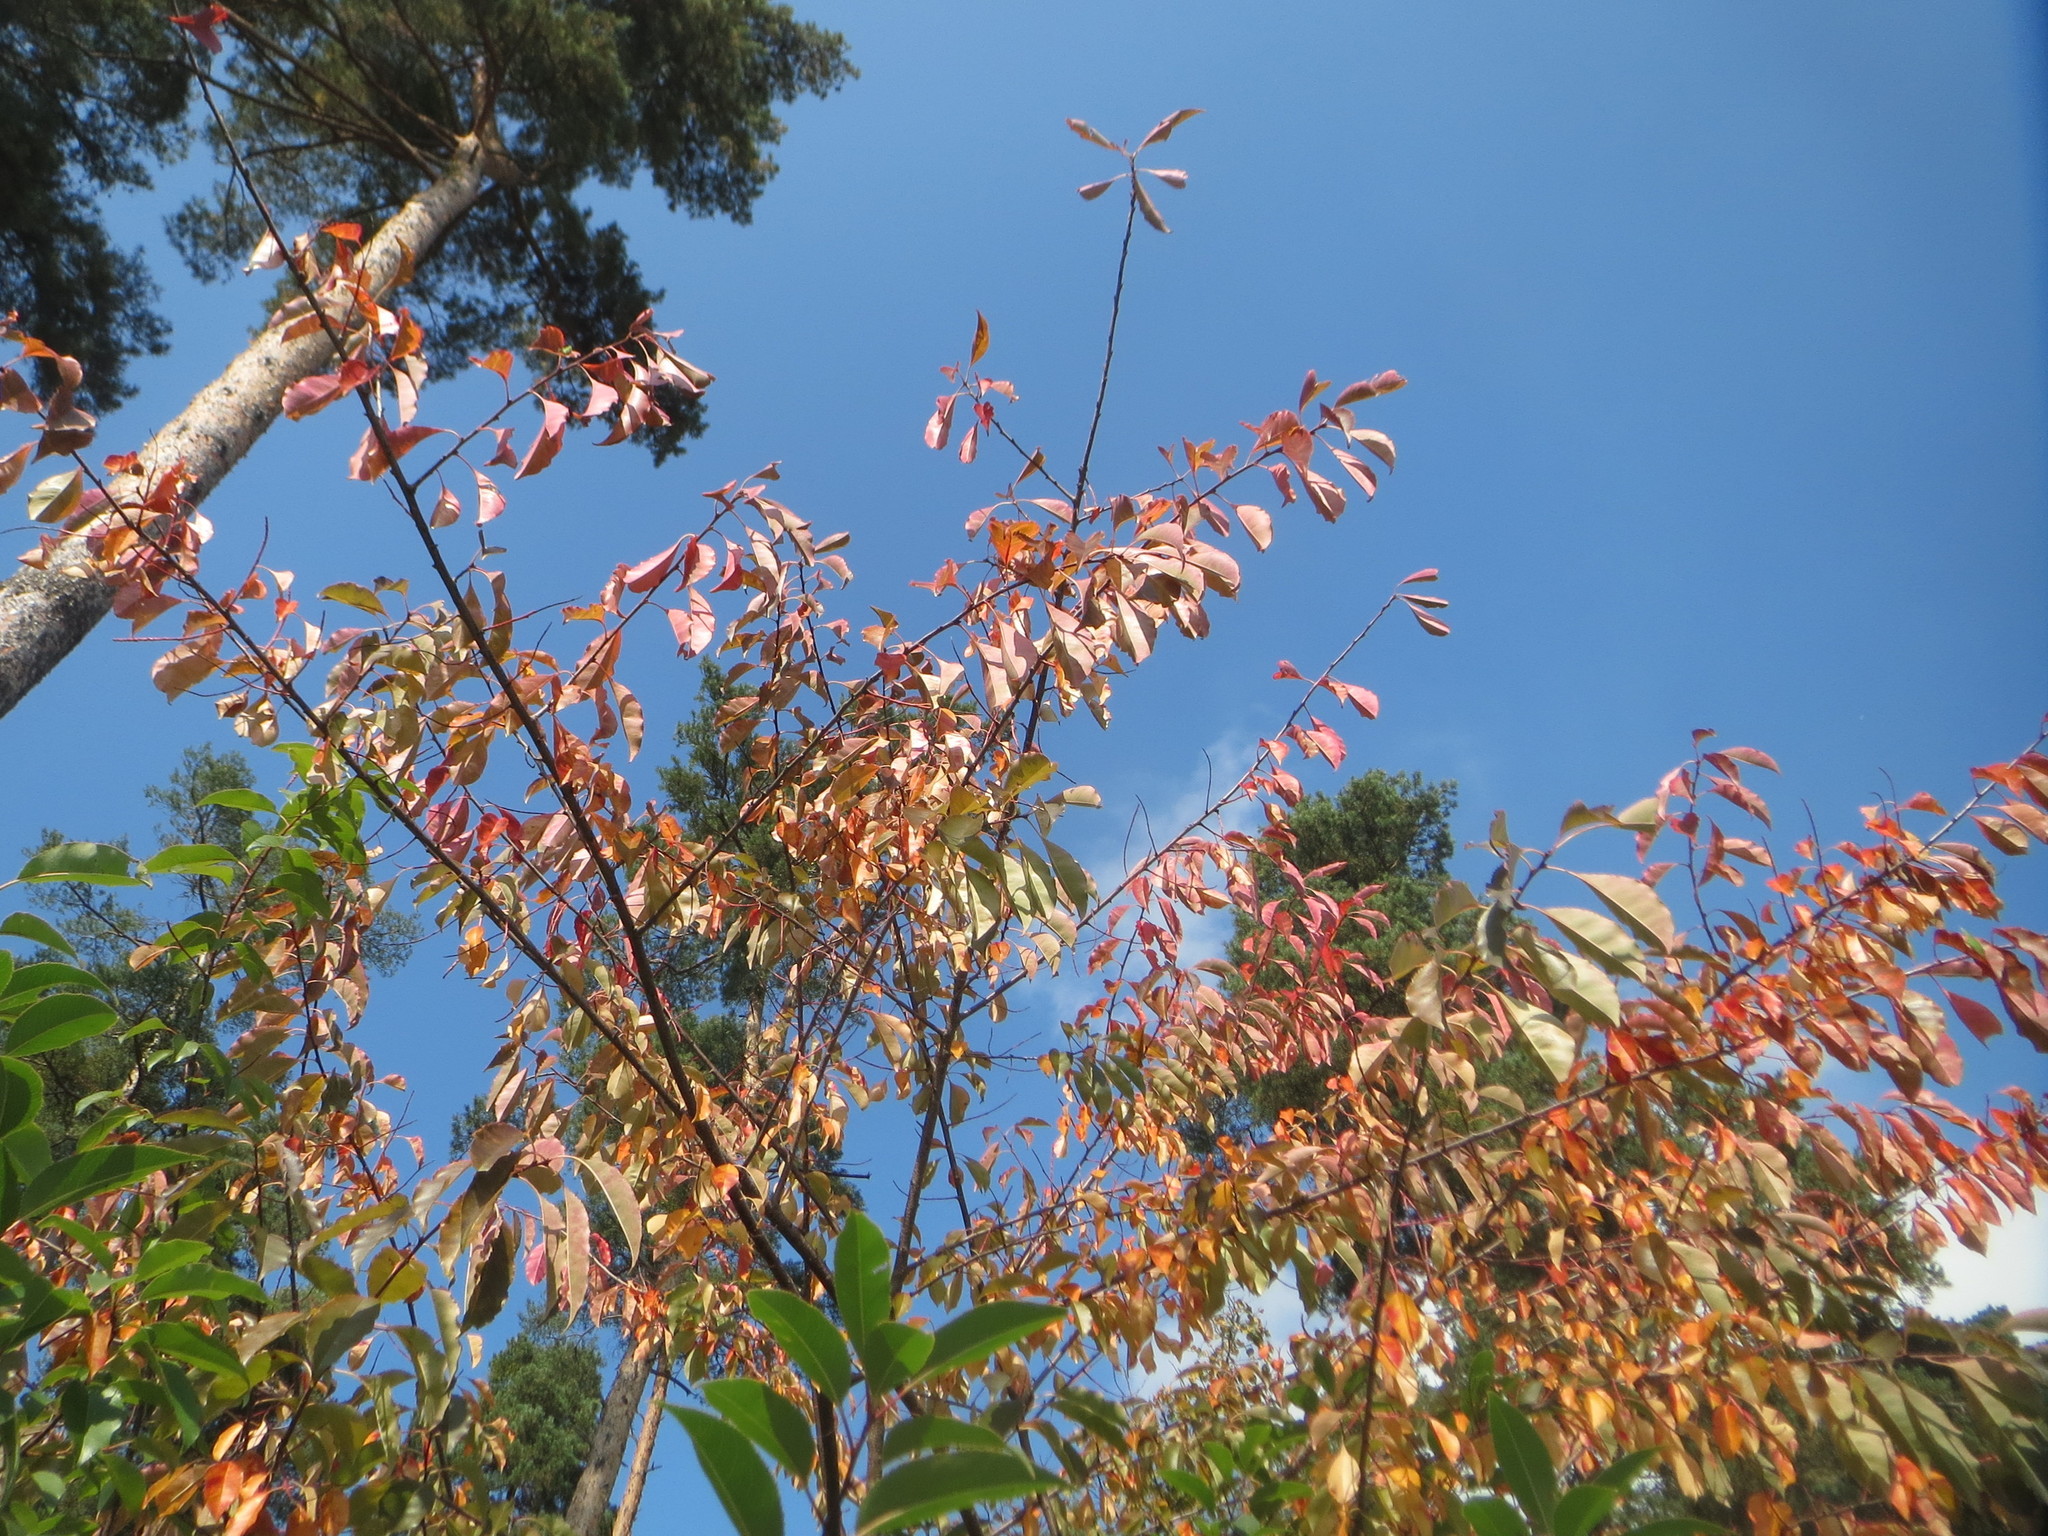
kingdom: Plantae
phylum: Tracheophyta
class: Magnoliopsida
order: Rosales
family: Rosaceae
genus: Prunus
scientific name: Prunus serotina
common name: Black cherry
